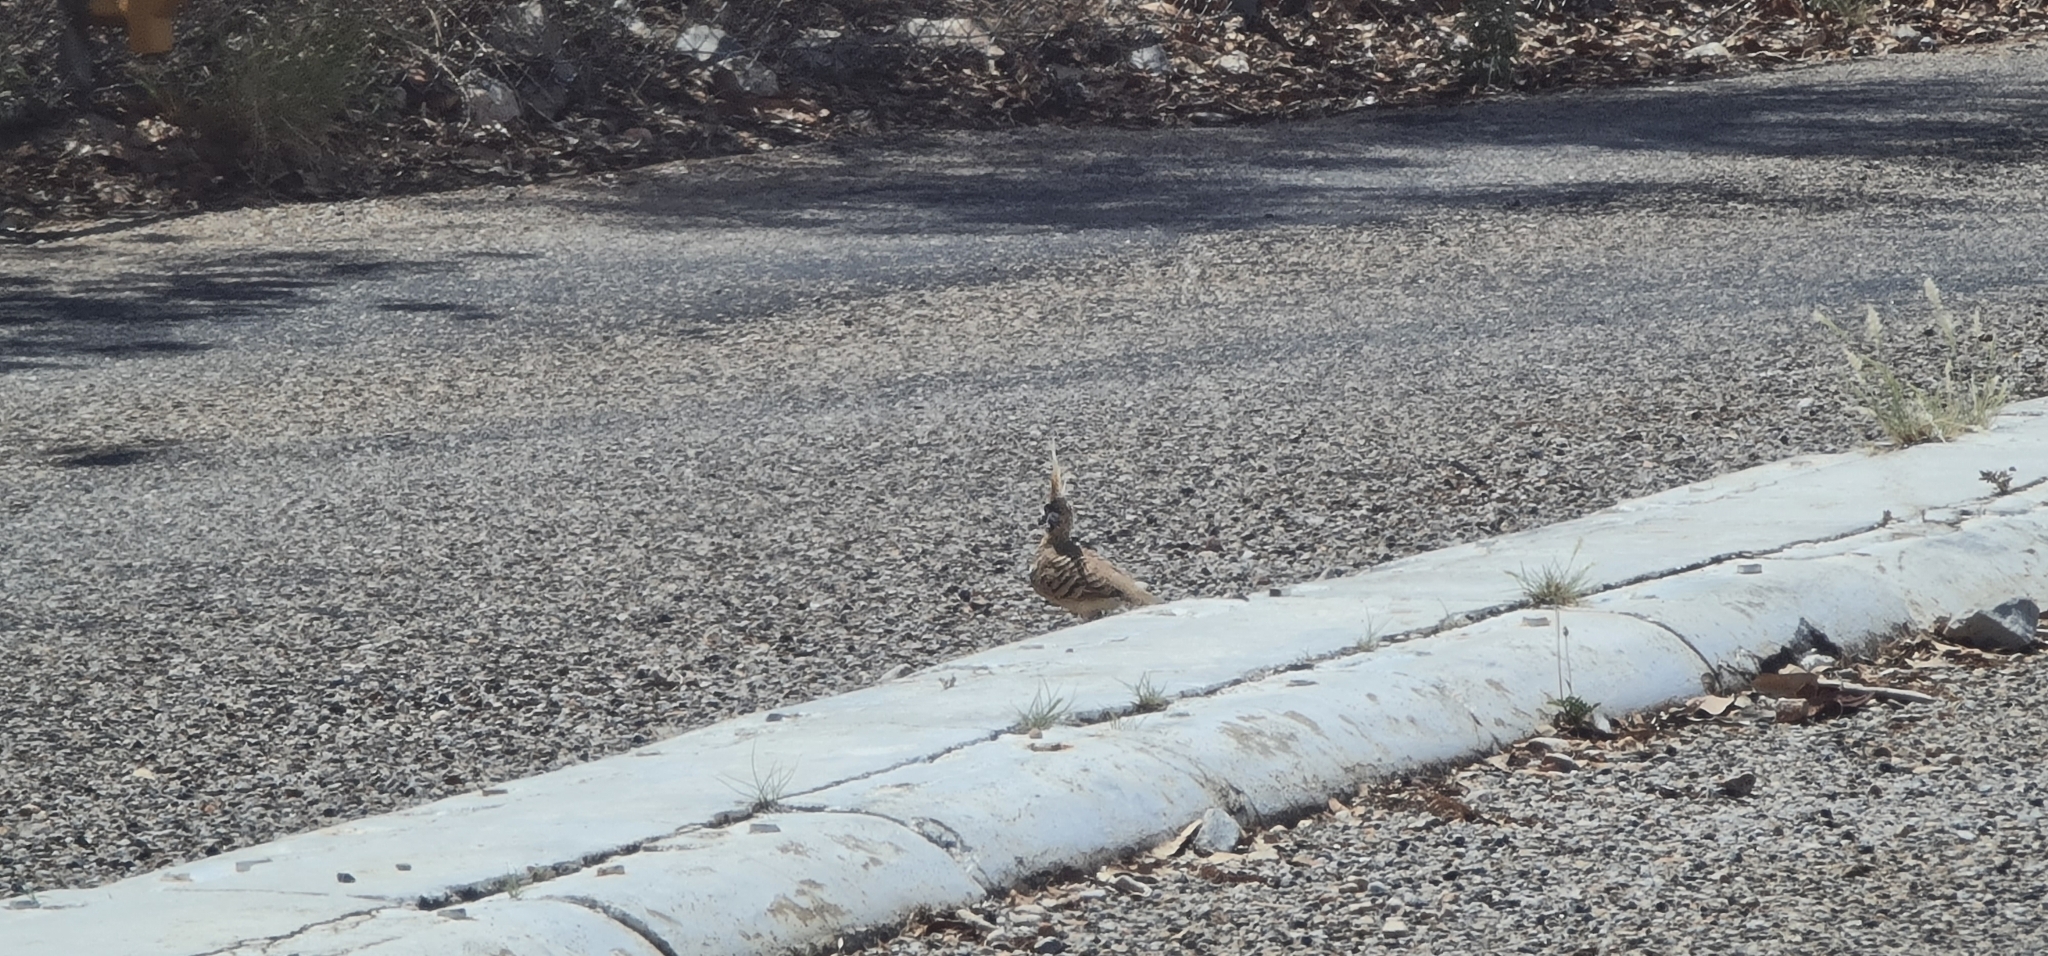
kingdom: Animalia
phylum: Chordata
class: Aves
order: Columbiformes
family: Columbidae
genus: Geophaps
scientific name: Geophaps plumifera
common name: Spinifex pigeon
